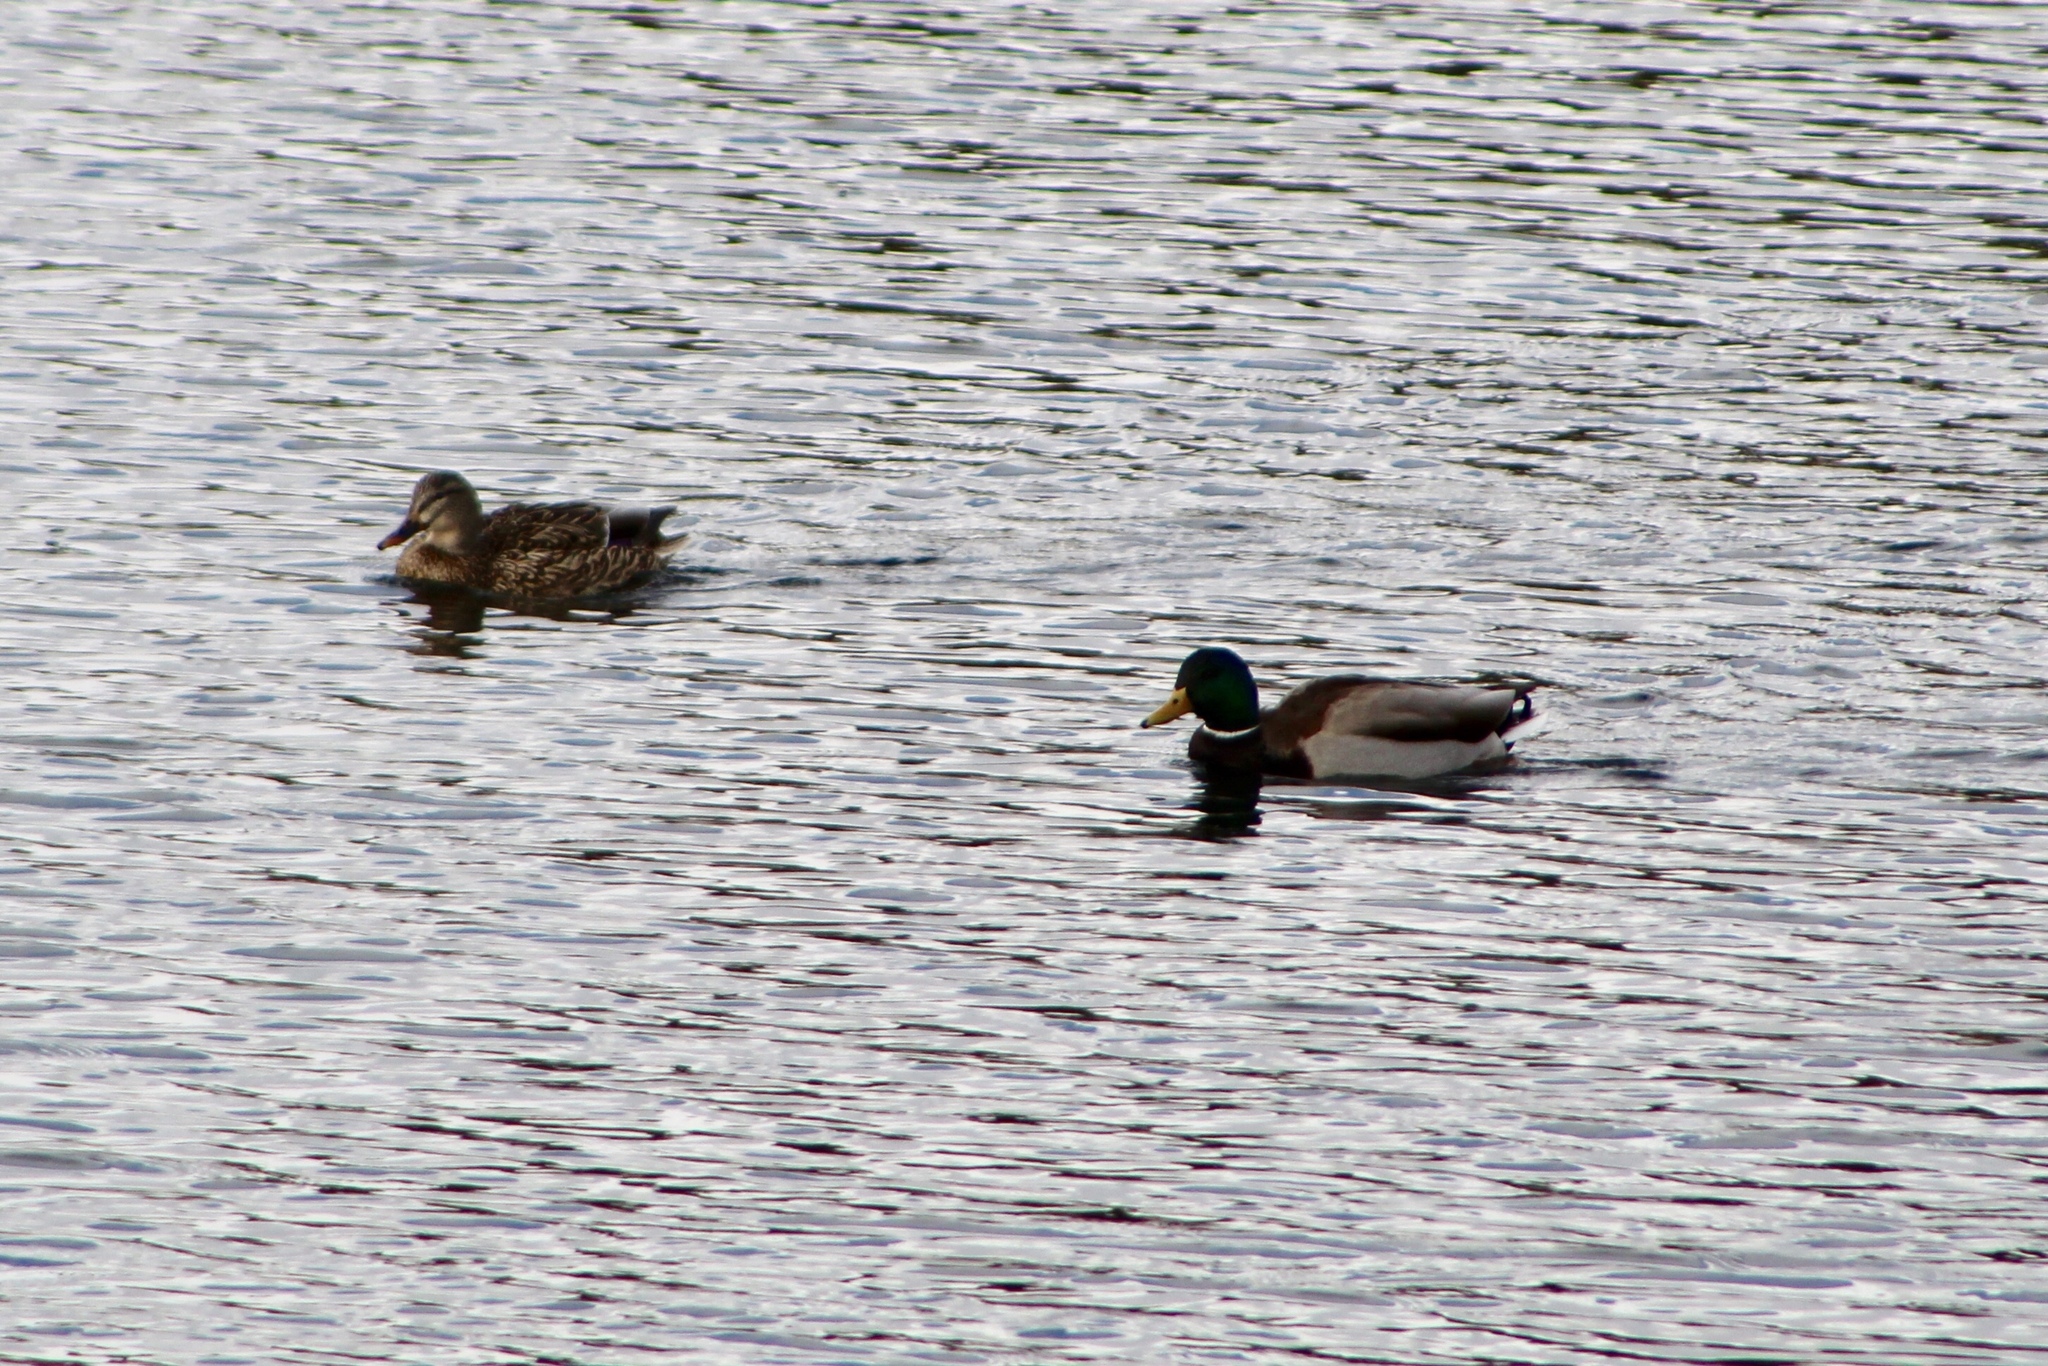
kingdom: Animalia
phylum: Chordata
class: Aves
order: Anseriformes
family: Anatidae
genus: Anas
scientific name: Anas platyrhynchos
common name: Mallard
